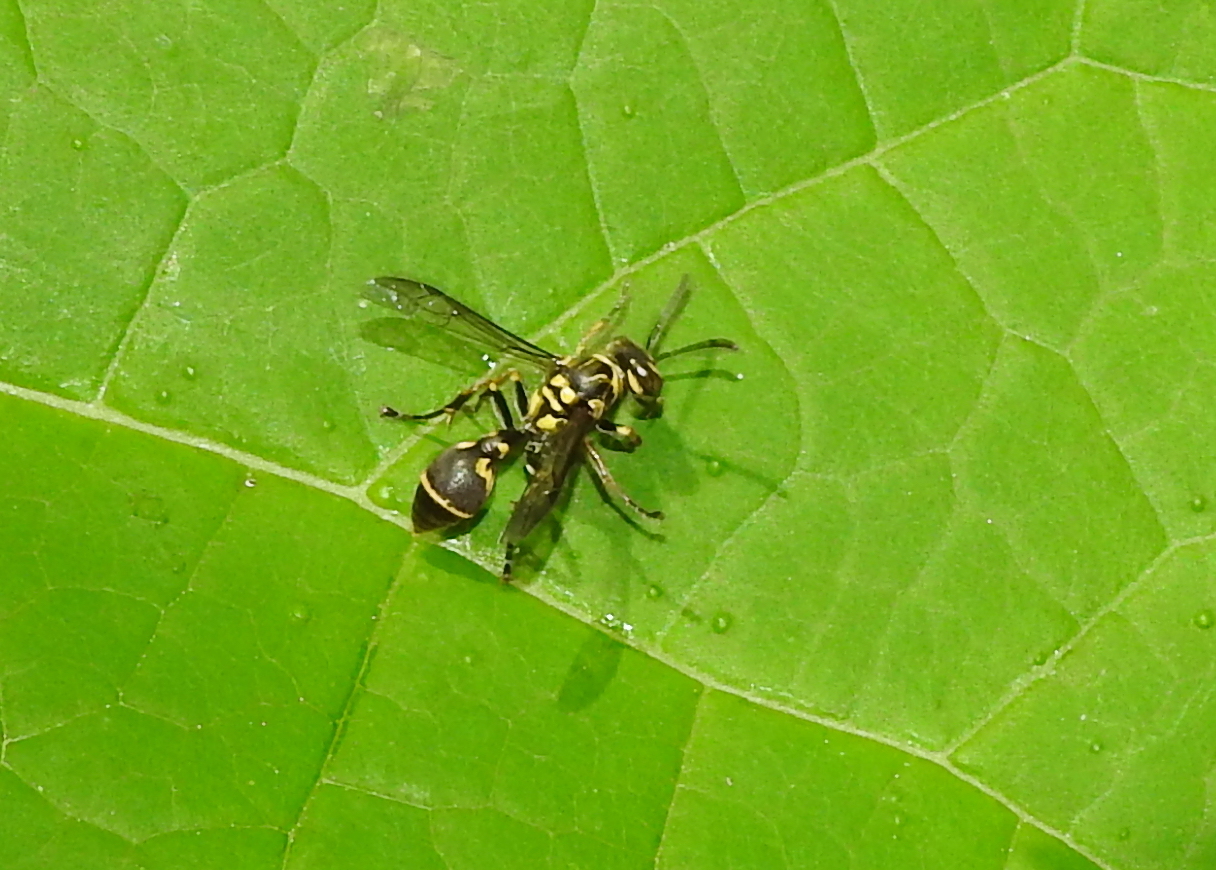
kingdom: Animalia
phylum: Arthropoda
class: Insecta
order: Hymenoptera
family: Vespidae
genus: Ropalidia
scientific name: Ropalidia flavopicta
